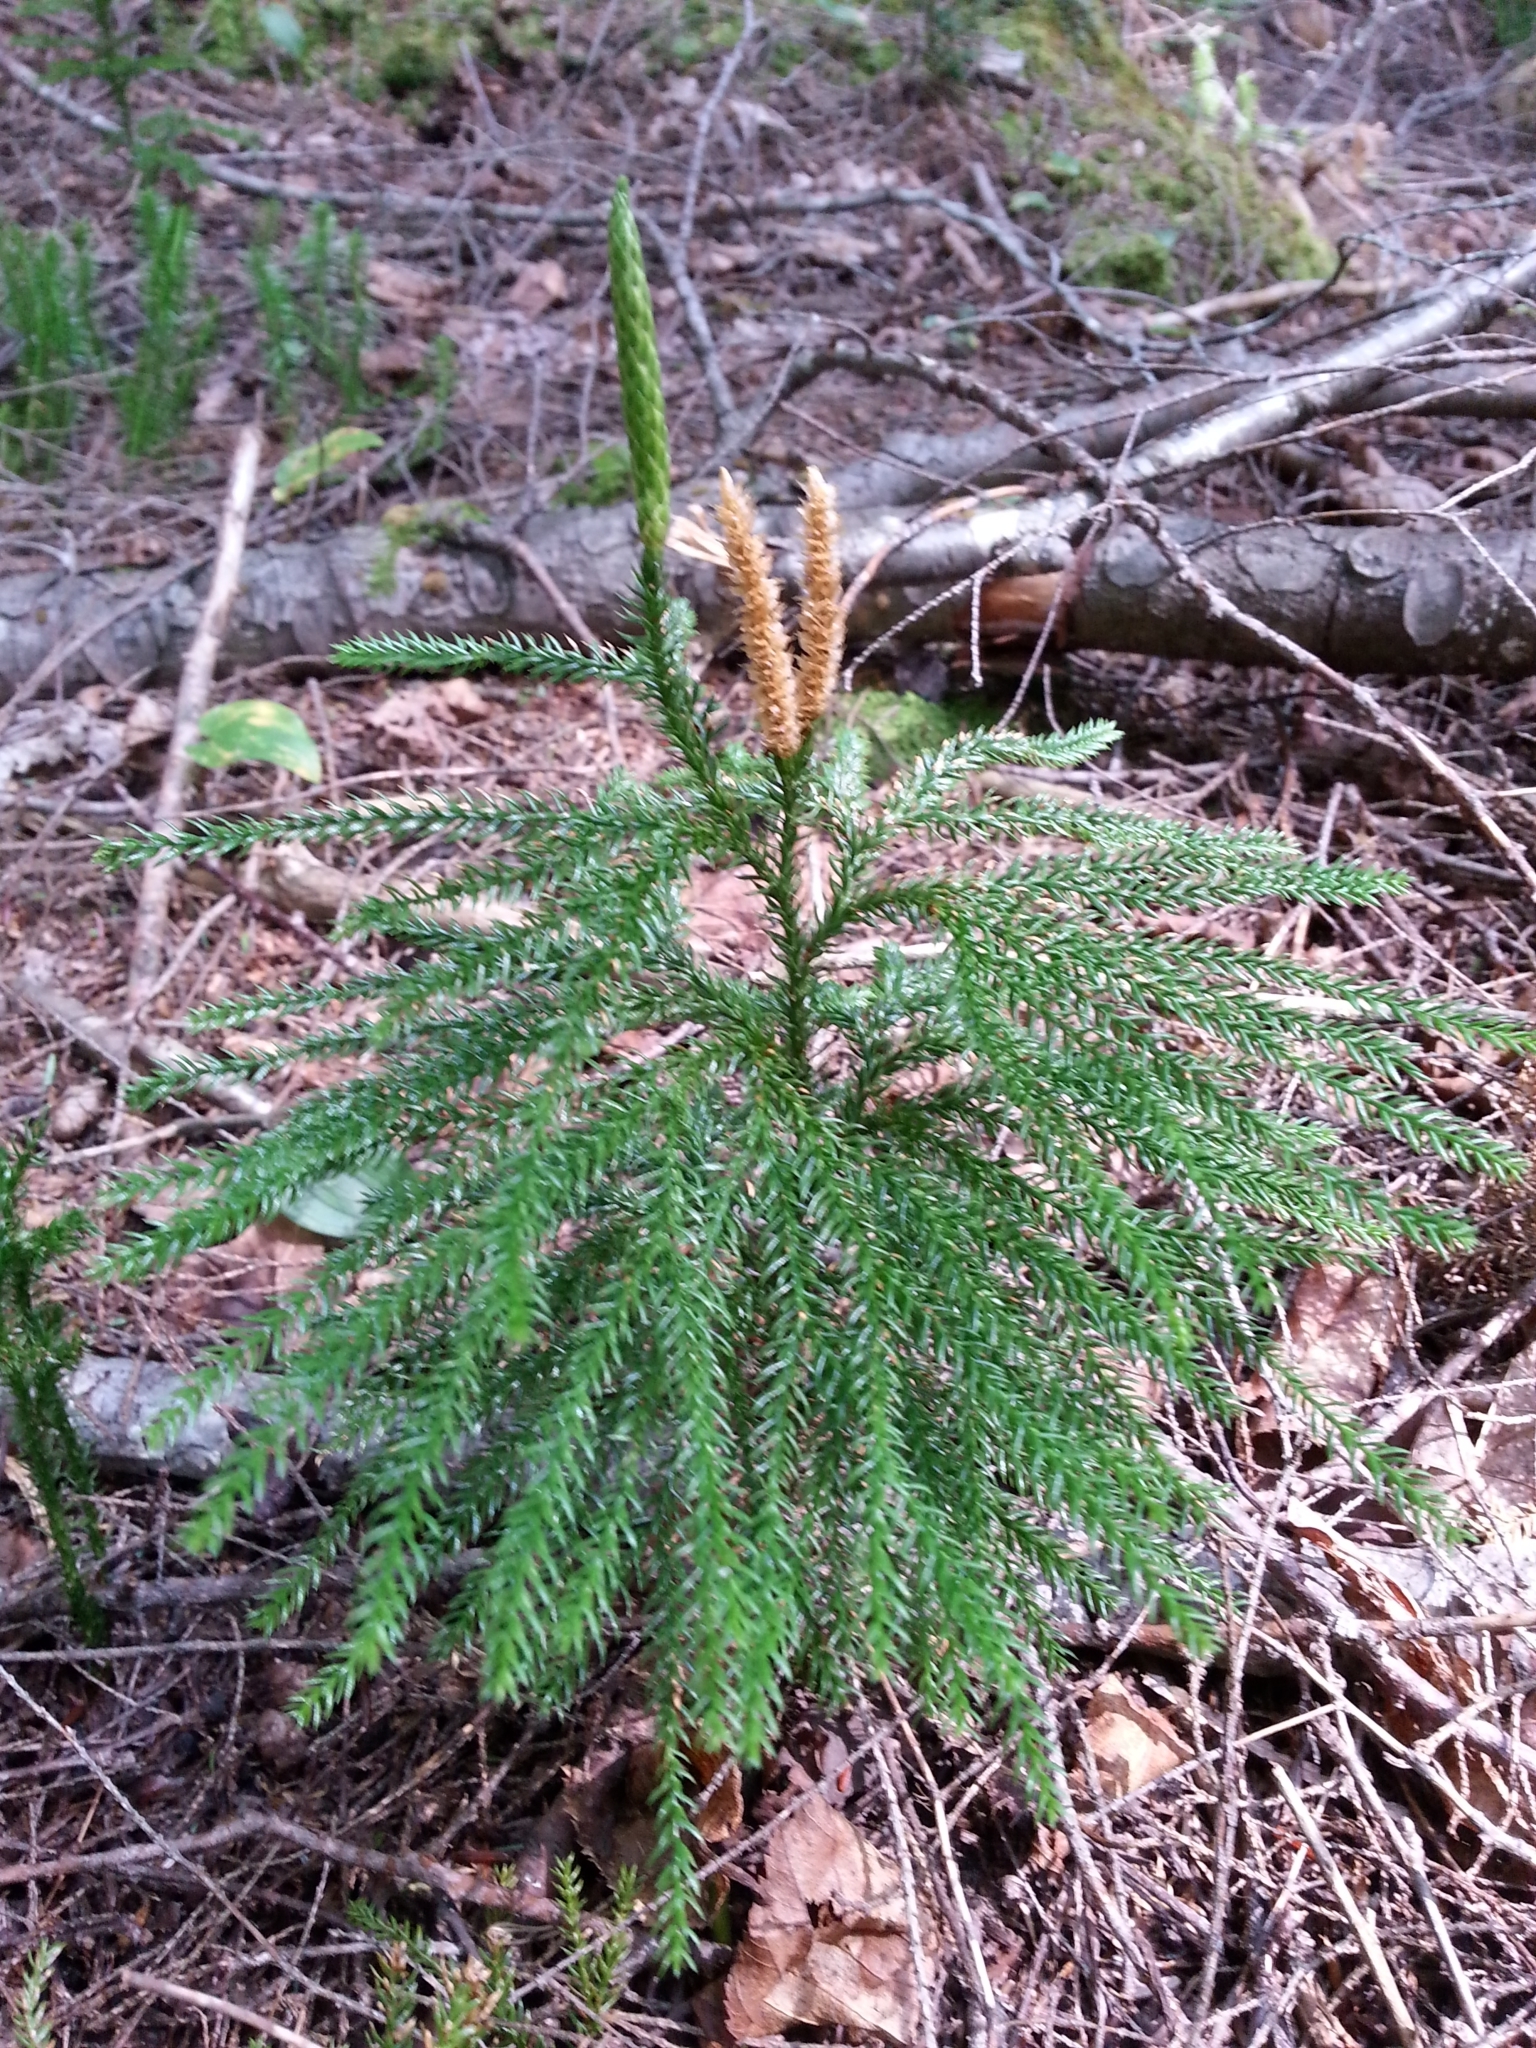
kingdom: Plantae
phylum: Tracheophyta
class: Lycopodiopsida
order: Lycopodiales
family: Lycopodiaceae
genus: Dendrolycopodium
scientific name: Dendrolycopodium dendroideum
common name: Northern tree-clubmoss
